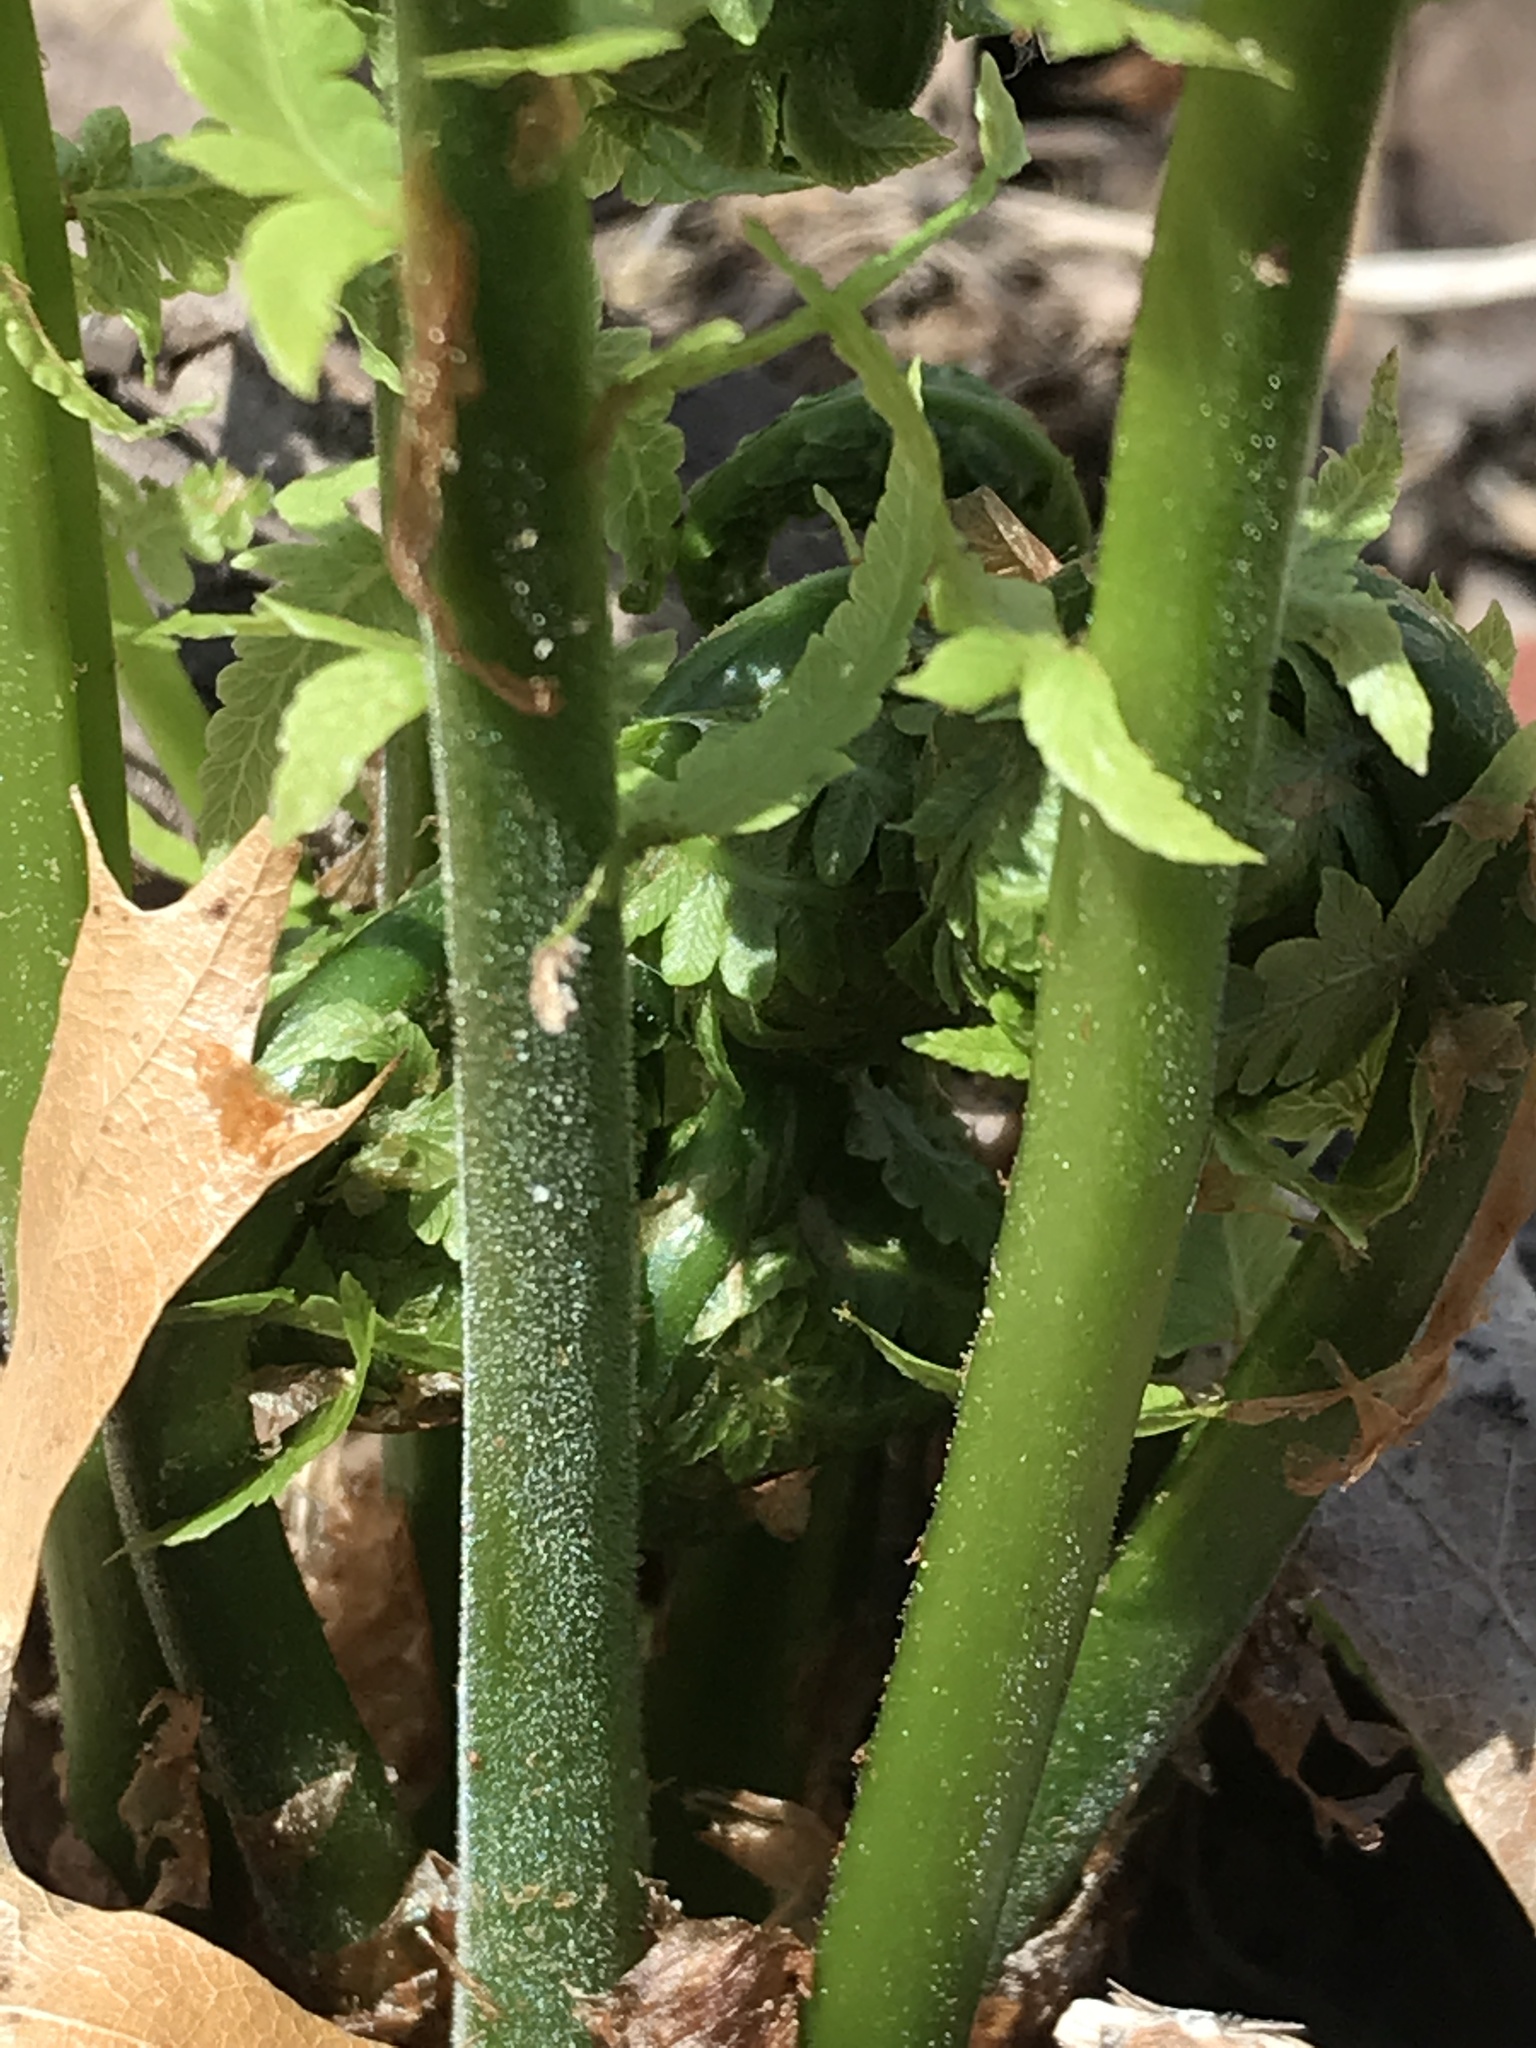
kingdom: Plantae
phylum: Tracheophyta
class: Polypodiopsida
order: Polypodiales
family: Onocleaceae
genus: Matteuccia
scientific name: Matteuccia struthiopteris
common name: Ostrich fern
